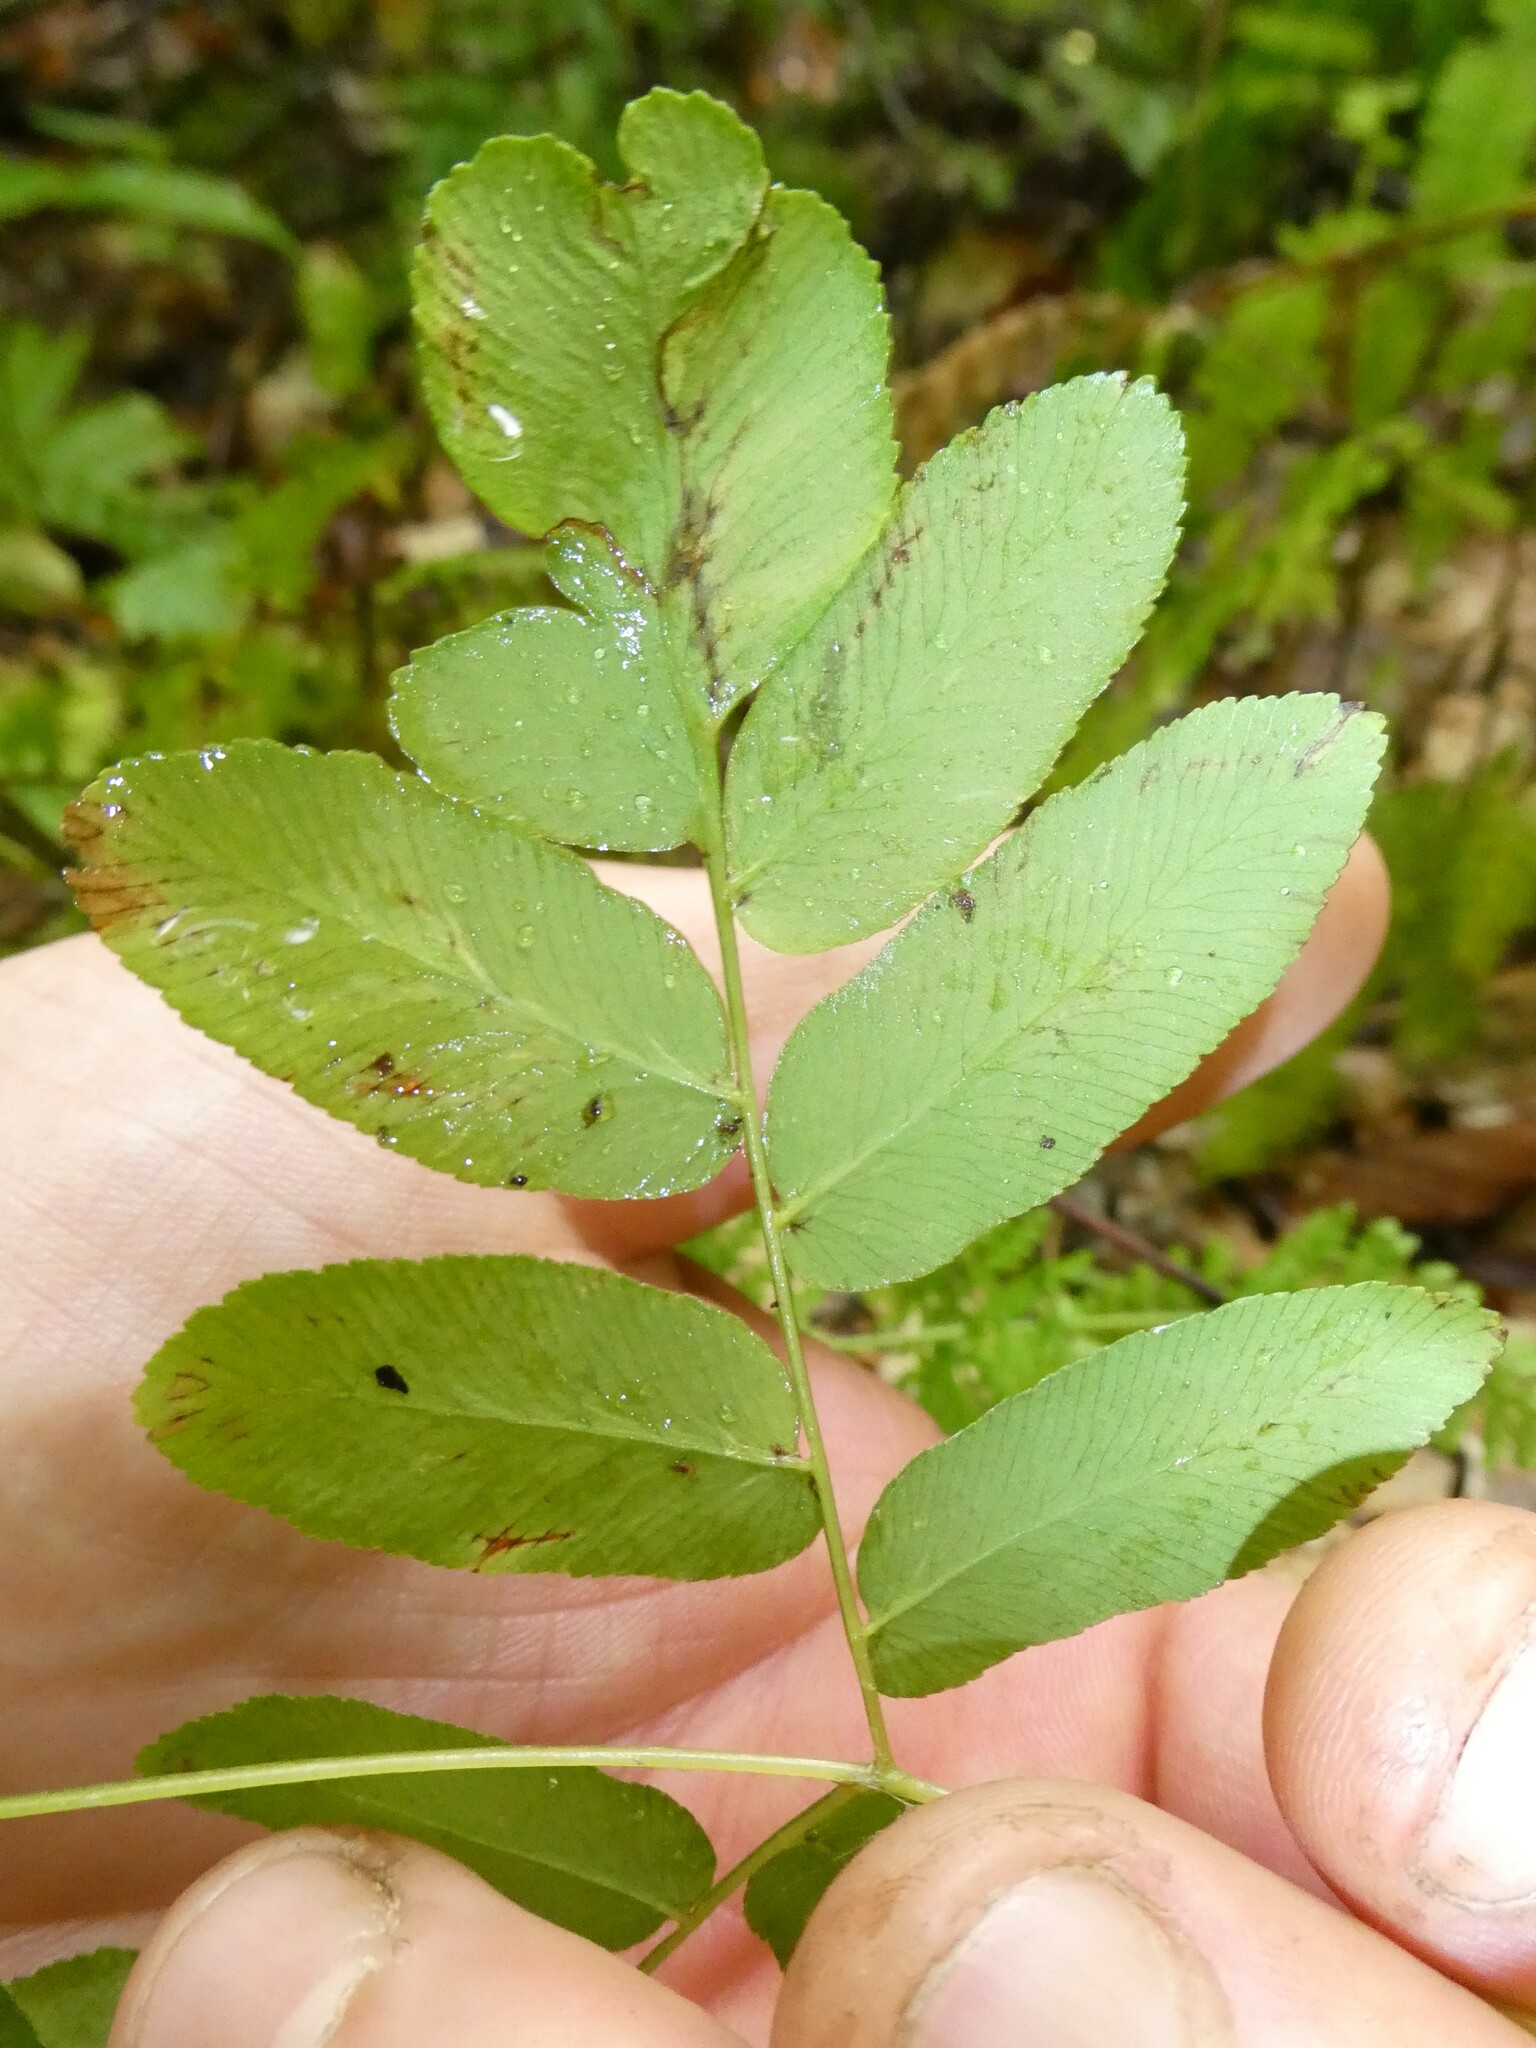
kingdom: Plantae
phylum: Tracheophyta
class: Polypodiopsida
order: Osmundales
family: Osmundaceae
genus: Osmunda
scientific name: Osmunda spectabilis
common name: American royal fern
